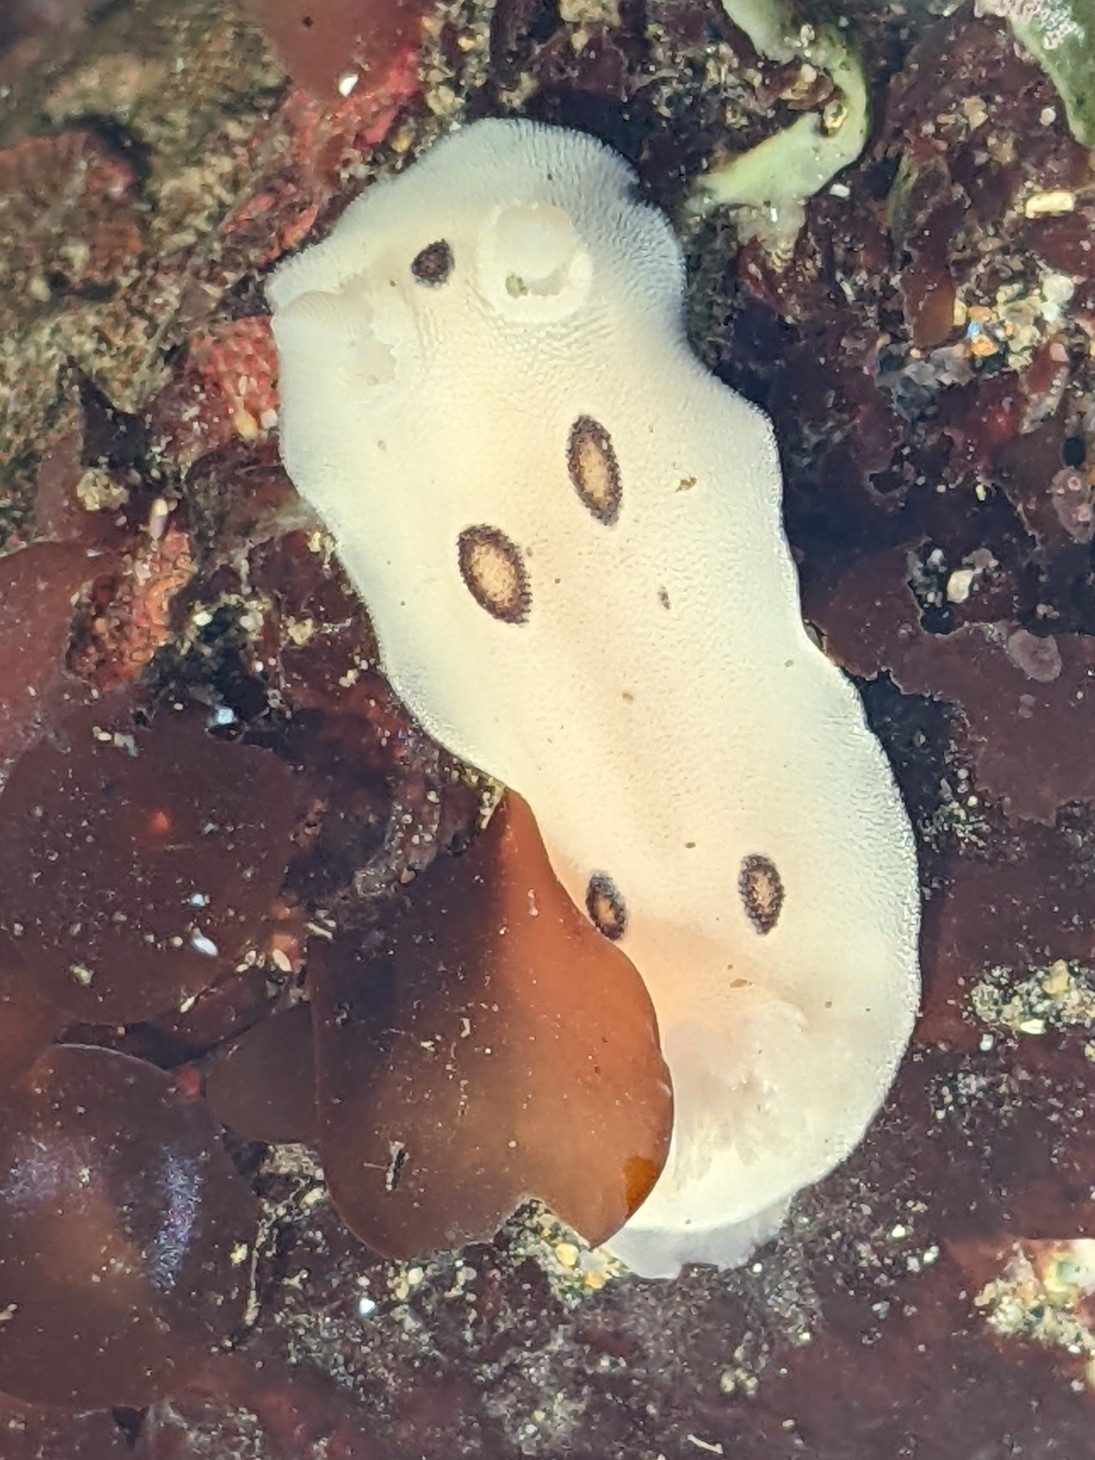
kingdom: Animalia
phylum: Mollusca
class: Gastropoda
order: Nudibranchia
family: Discodorididae
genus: Diaulula
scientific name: Diaulula sandiegensis
